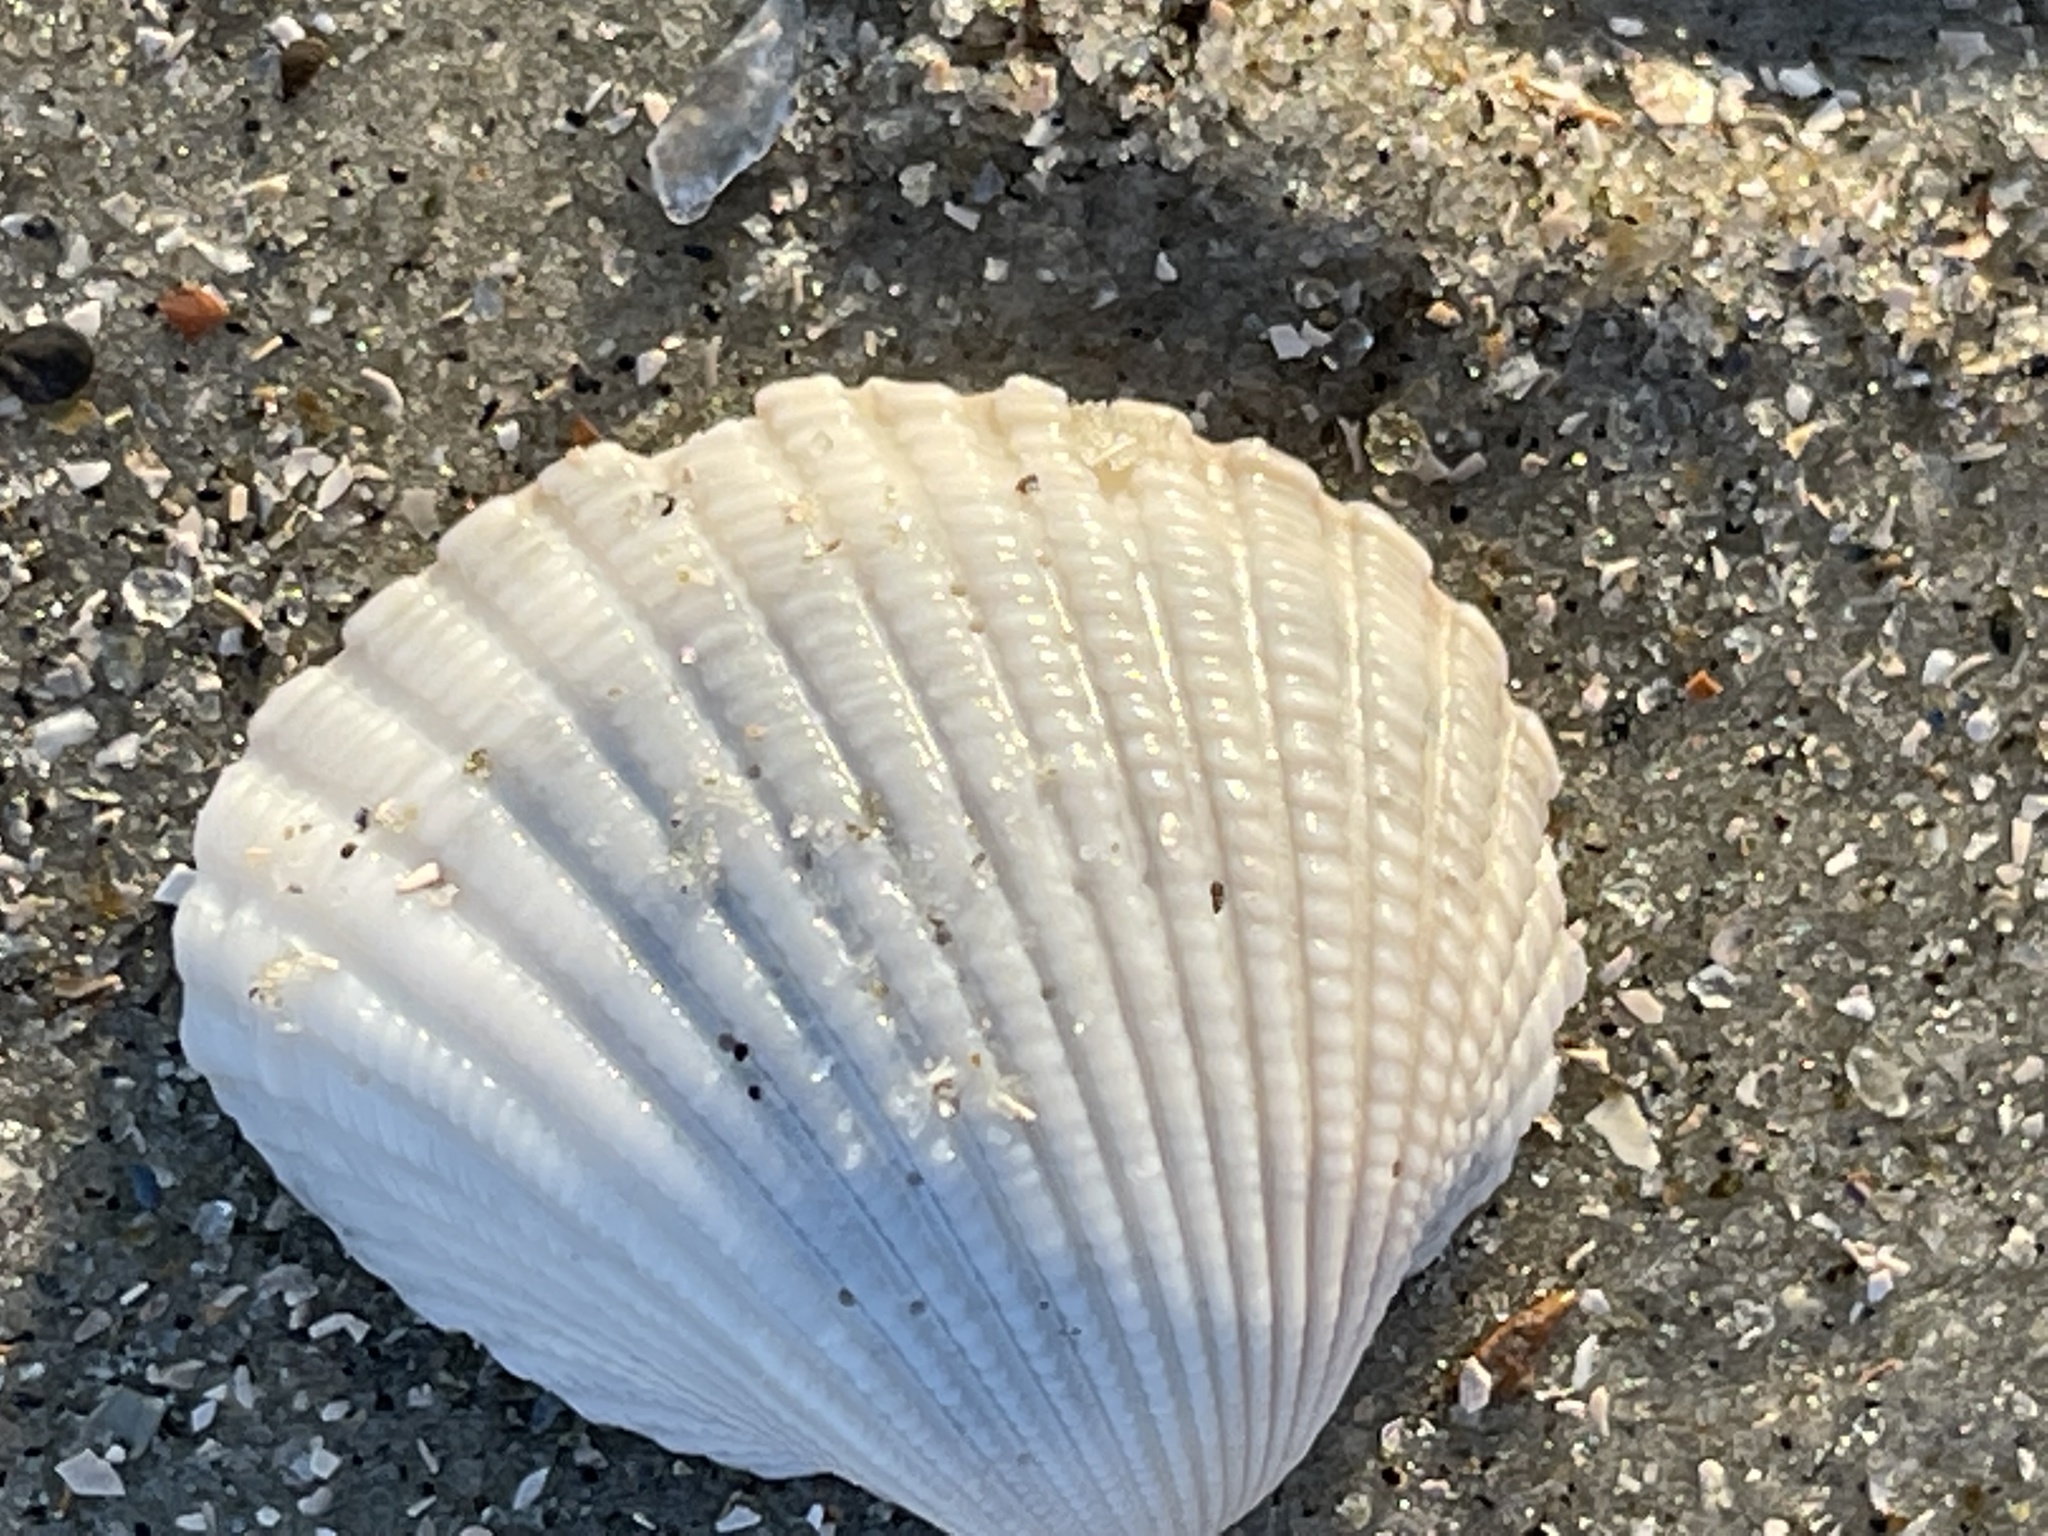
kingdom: Animalia
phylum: Mollusca
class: Bivalvia
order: Arcida
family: Arcidae
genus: Anadara
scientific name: Anadara brasiliana
